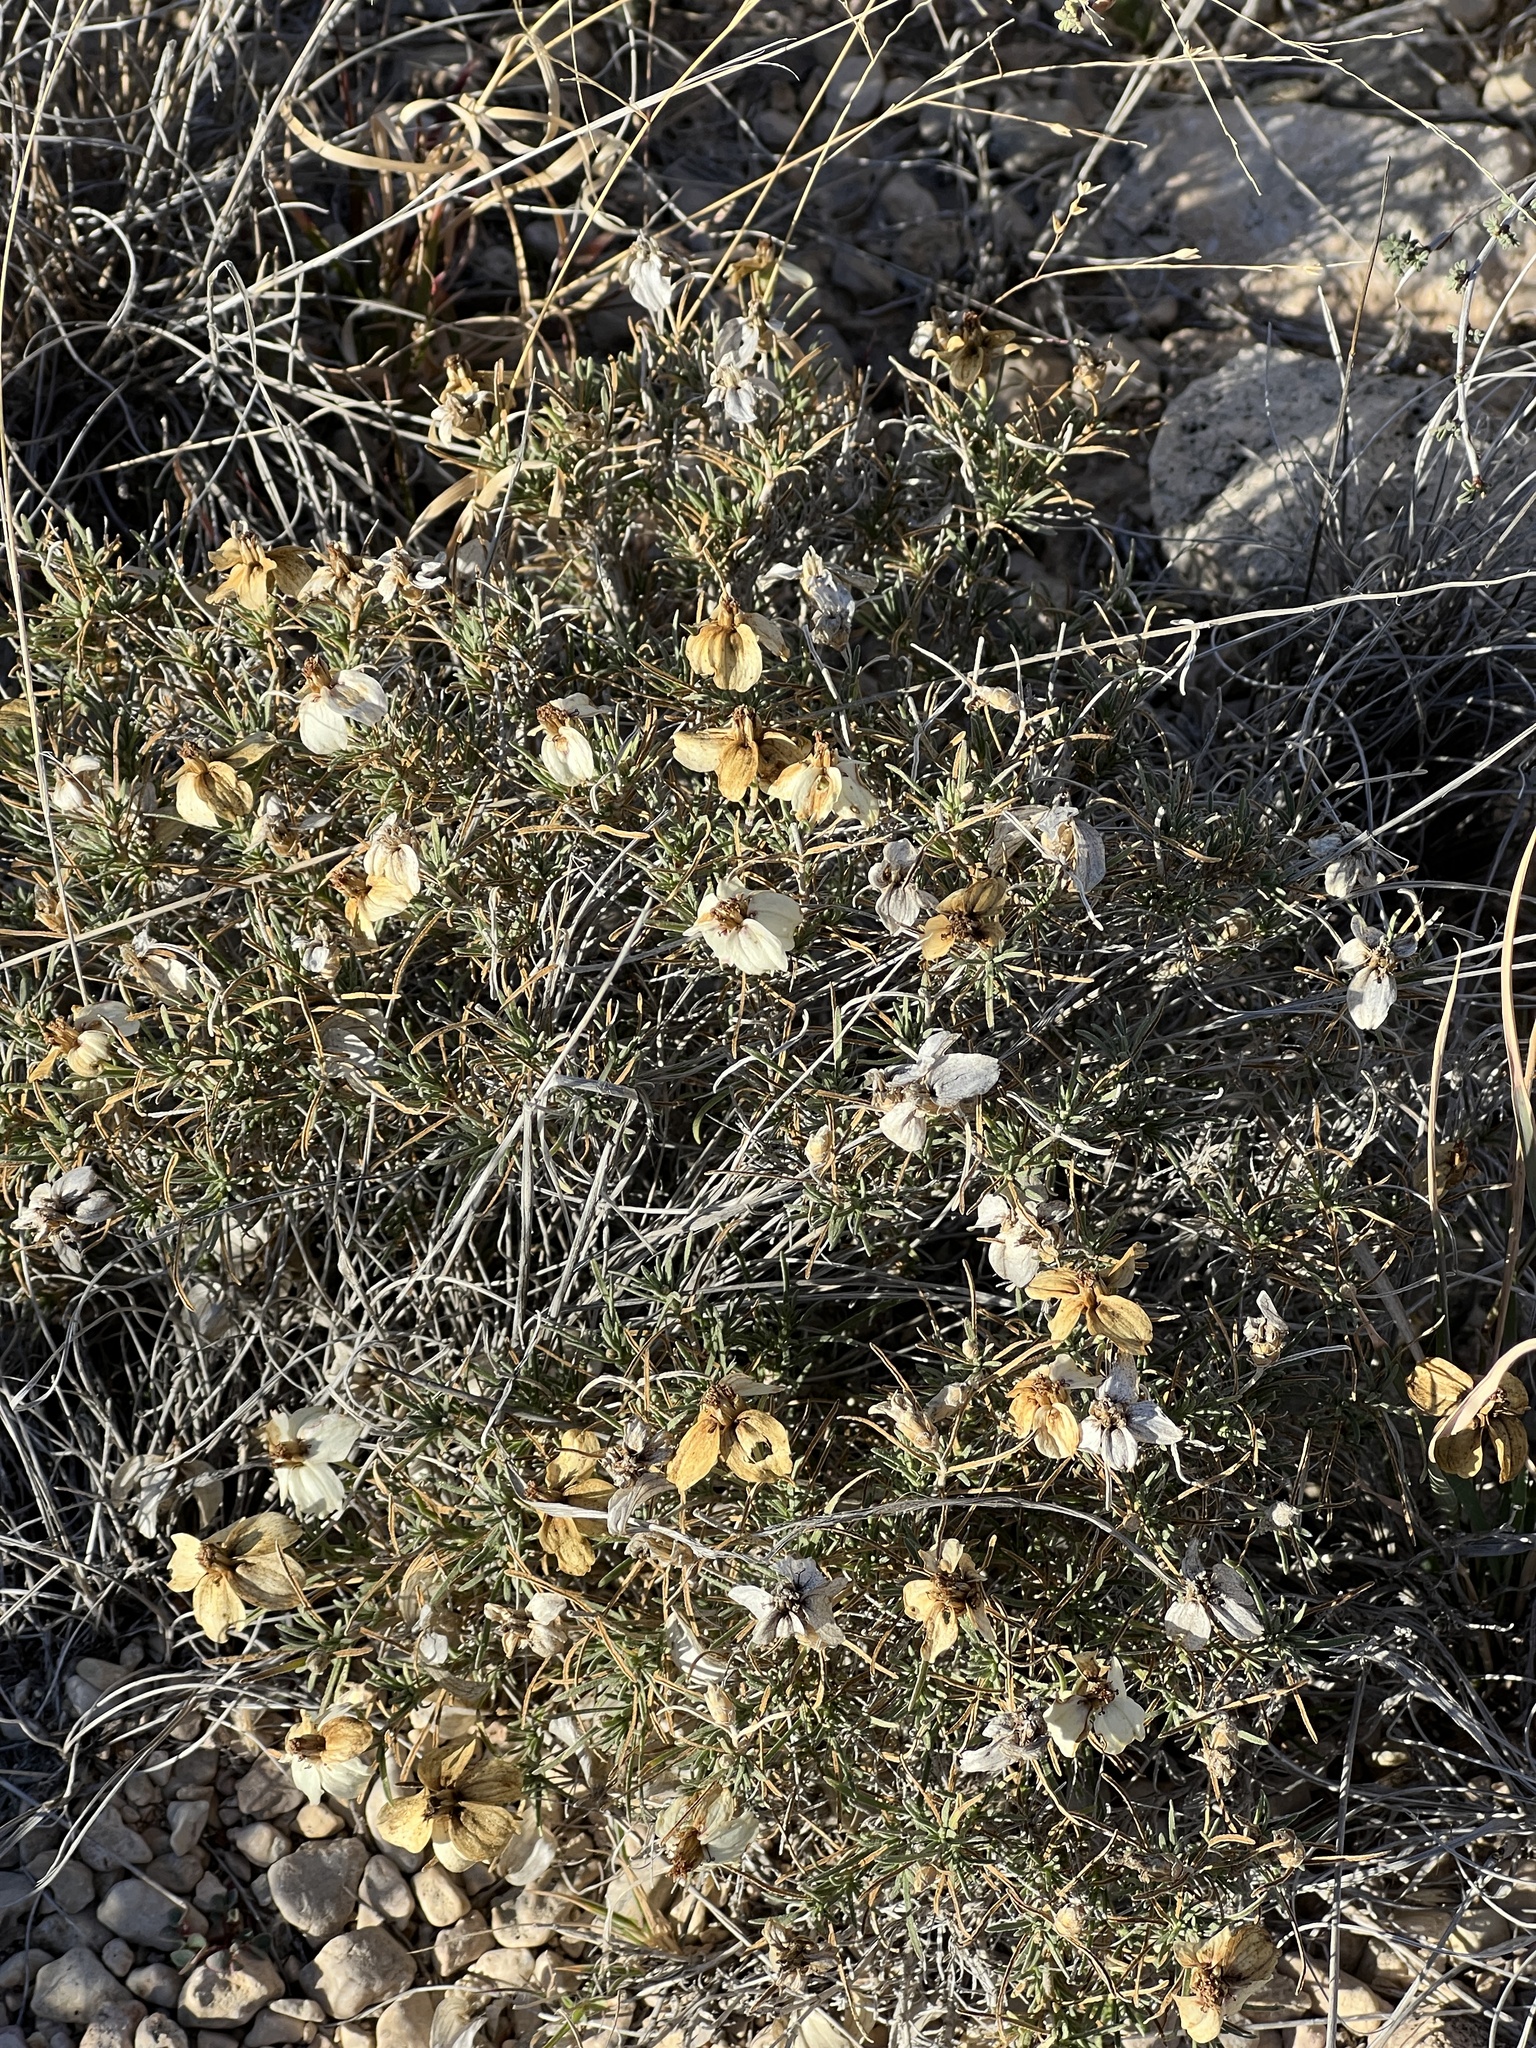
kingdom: Plantae
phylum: Tracheophyta
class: Magnoliopsida
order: Asterales
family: Asteraceae
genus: Zinnia
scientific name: Zinnia acerosa
